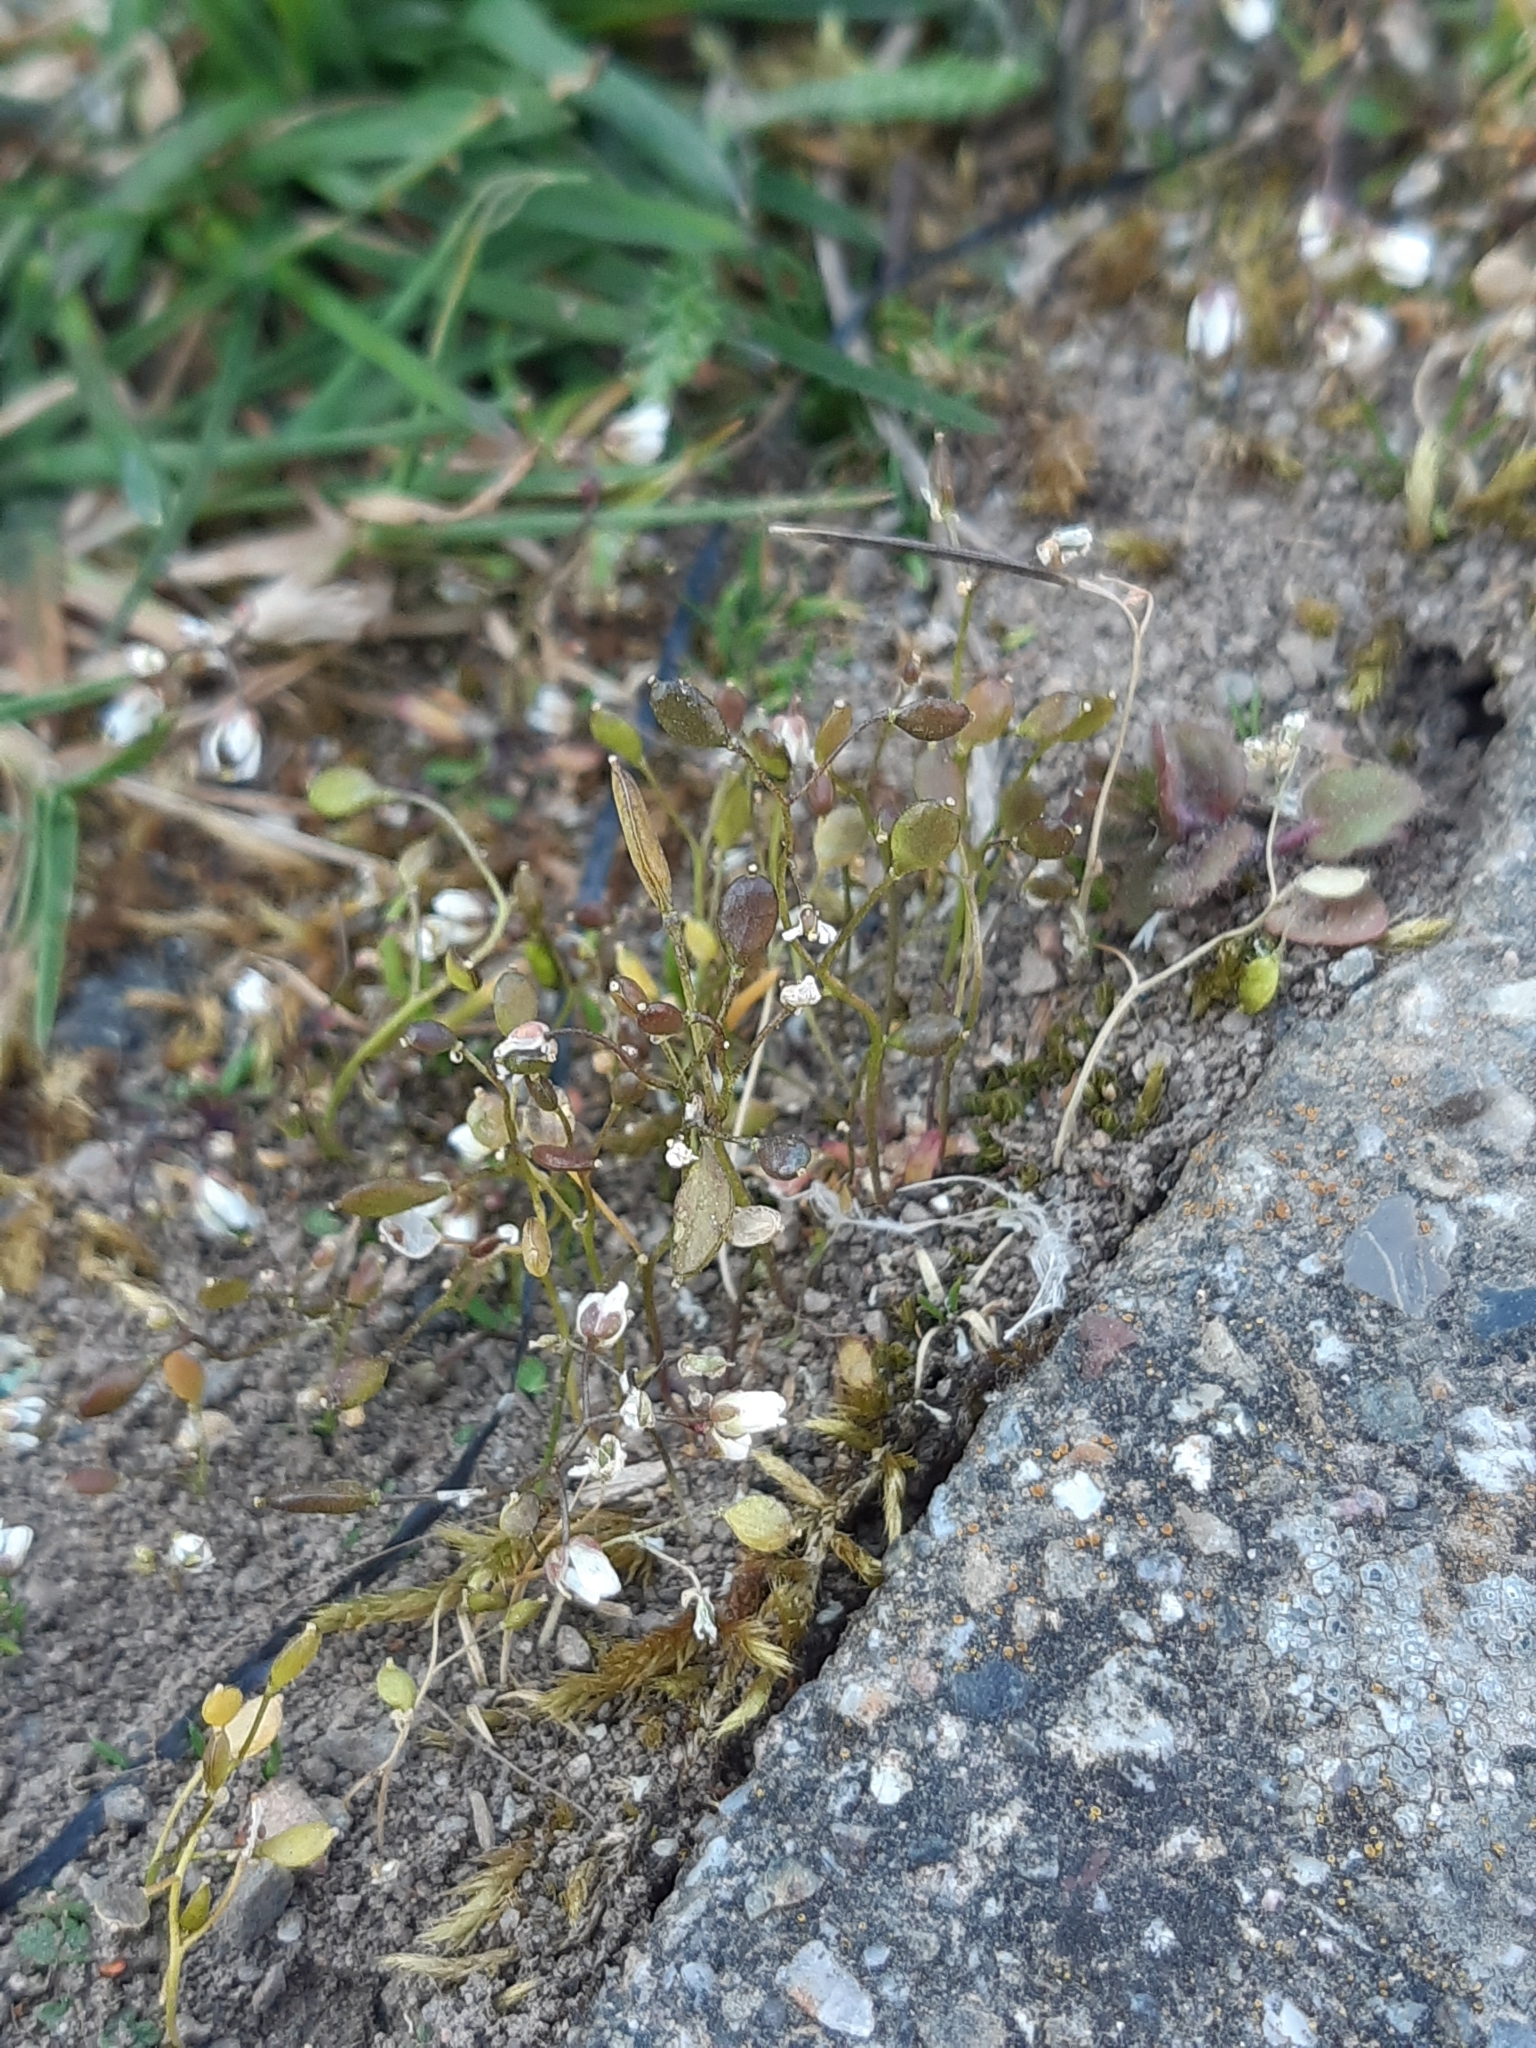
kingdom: Plantae
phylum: Tracheophyta
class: Magnoliopsida
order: Brassicales
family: Brassicaceae
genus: Draba
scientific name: Draba verna
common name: Spring draba
